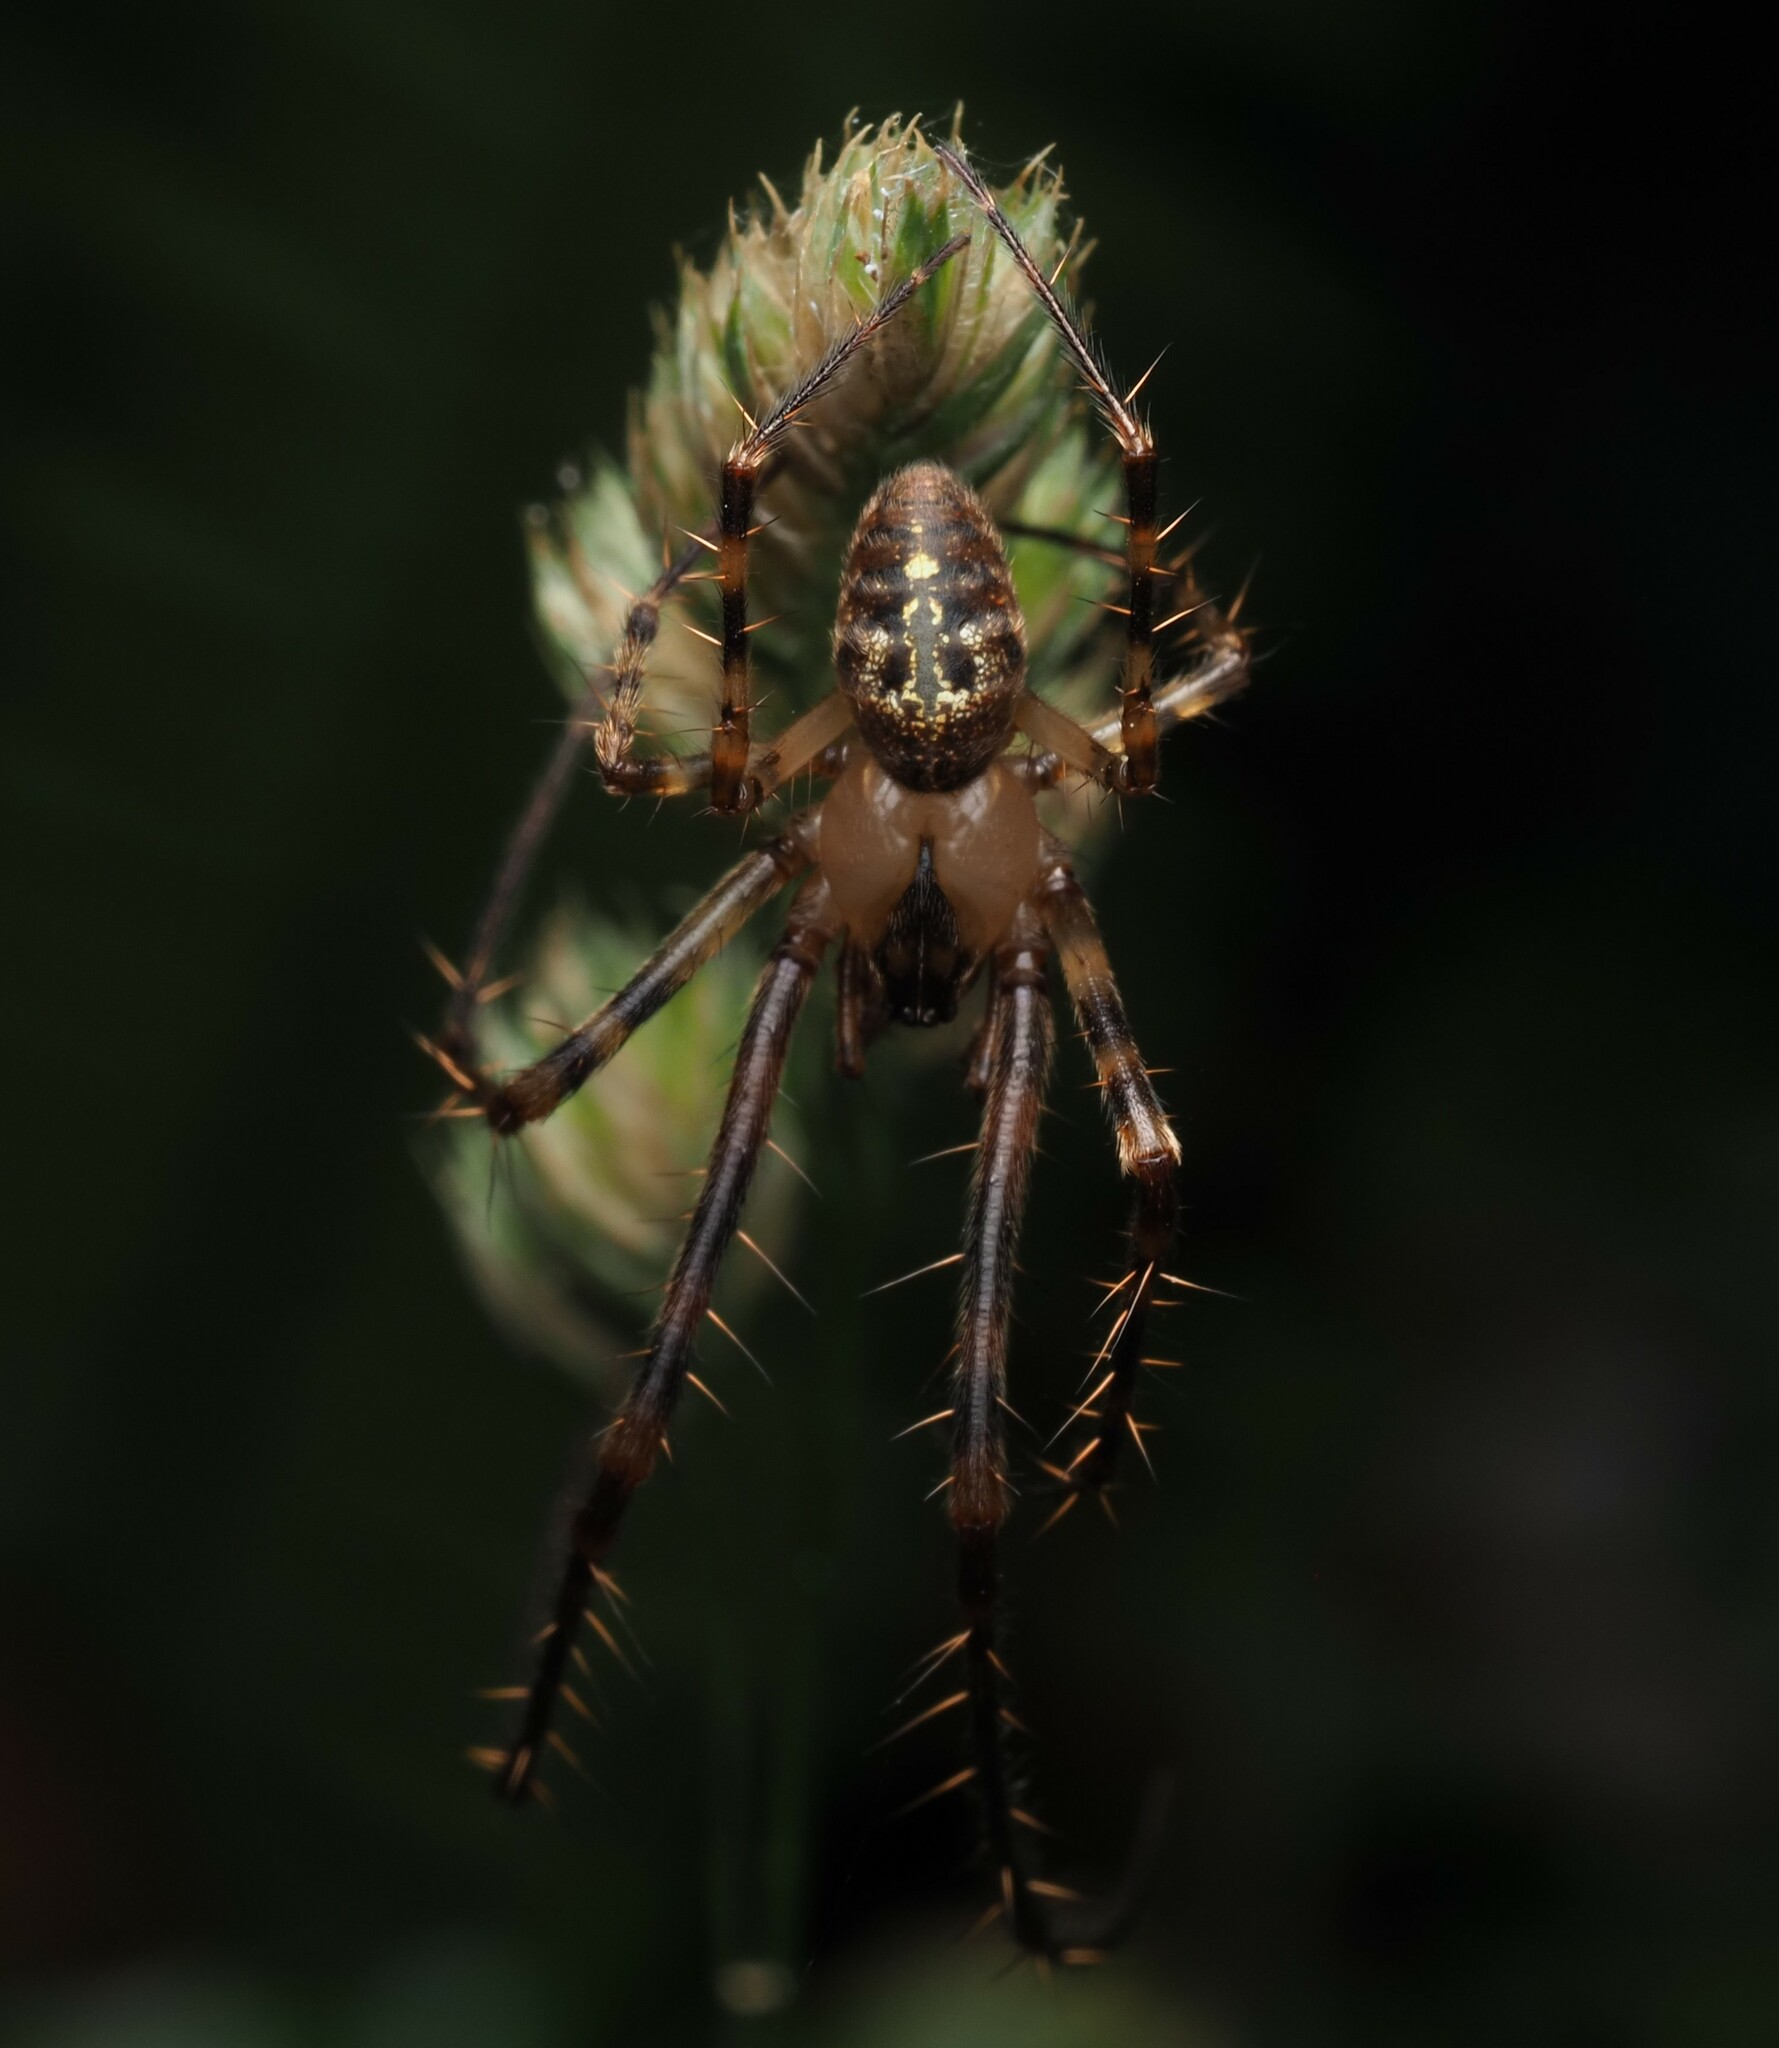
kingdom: Animalia
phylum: Arthropoda
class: Arachnida
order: Araneae
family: Tetragnathidae
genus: Tawhai
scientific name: Tawhai arborea
